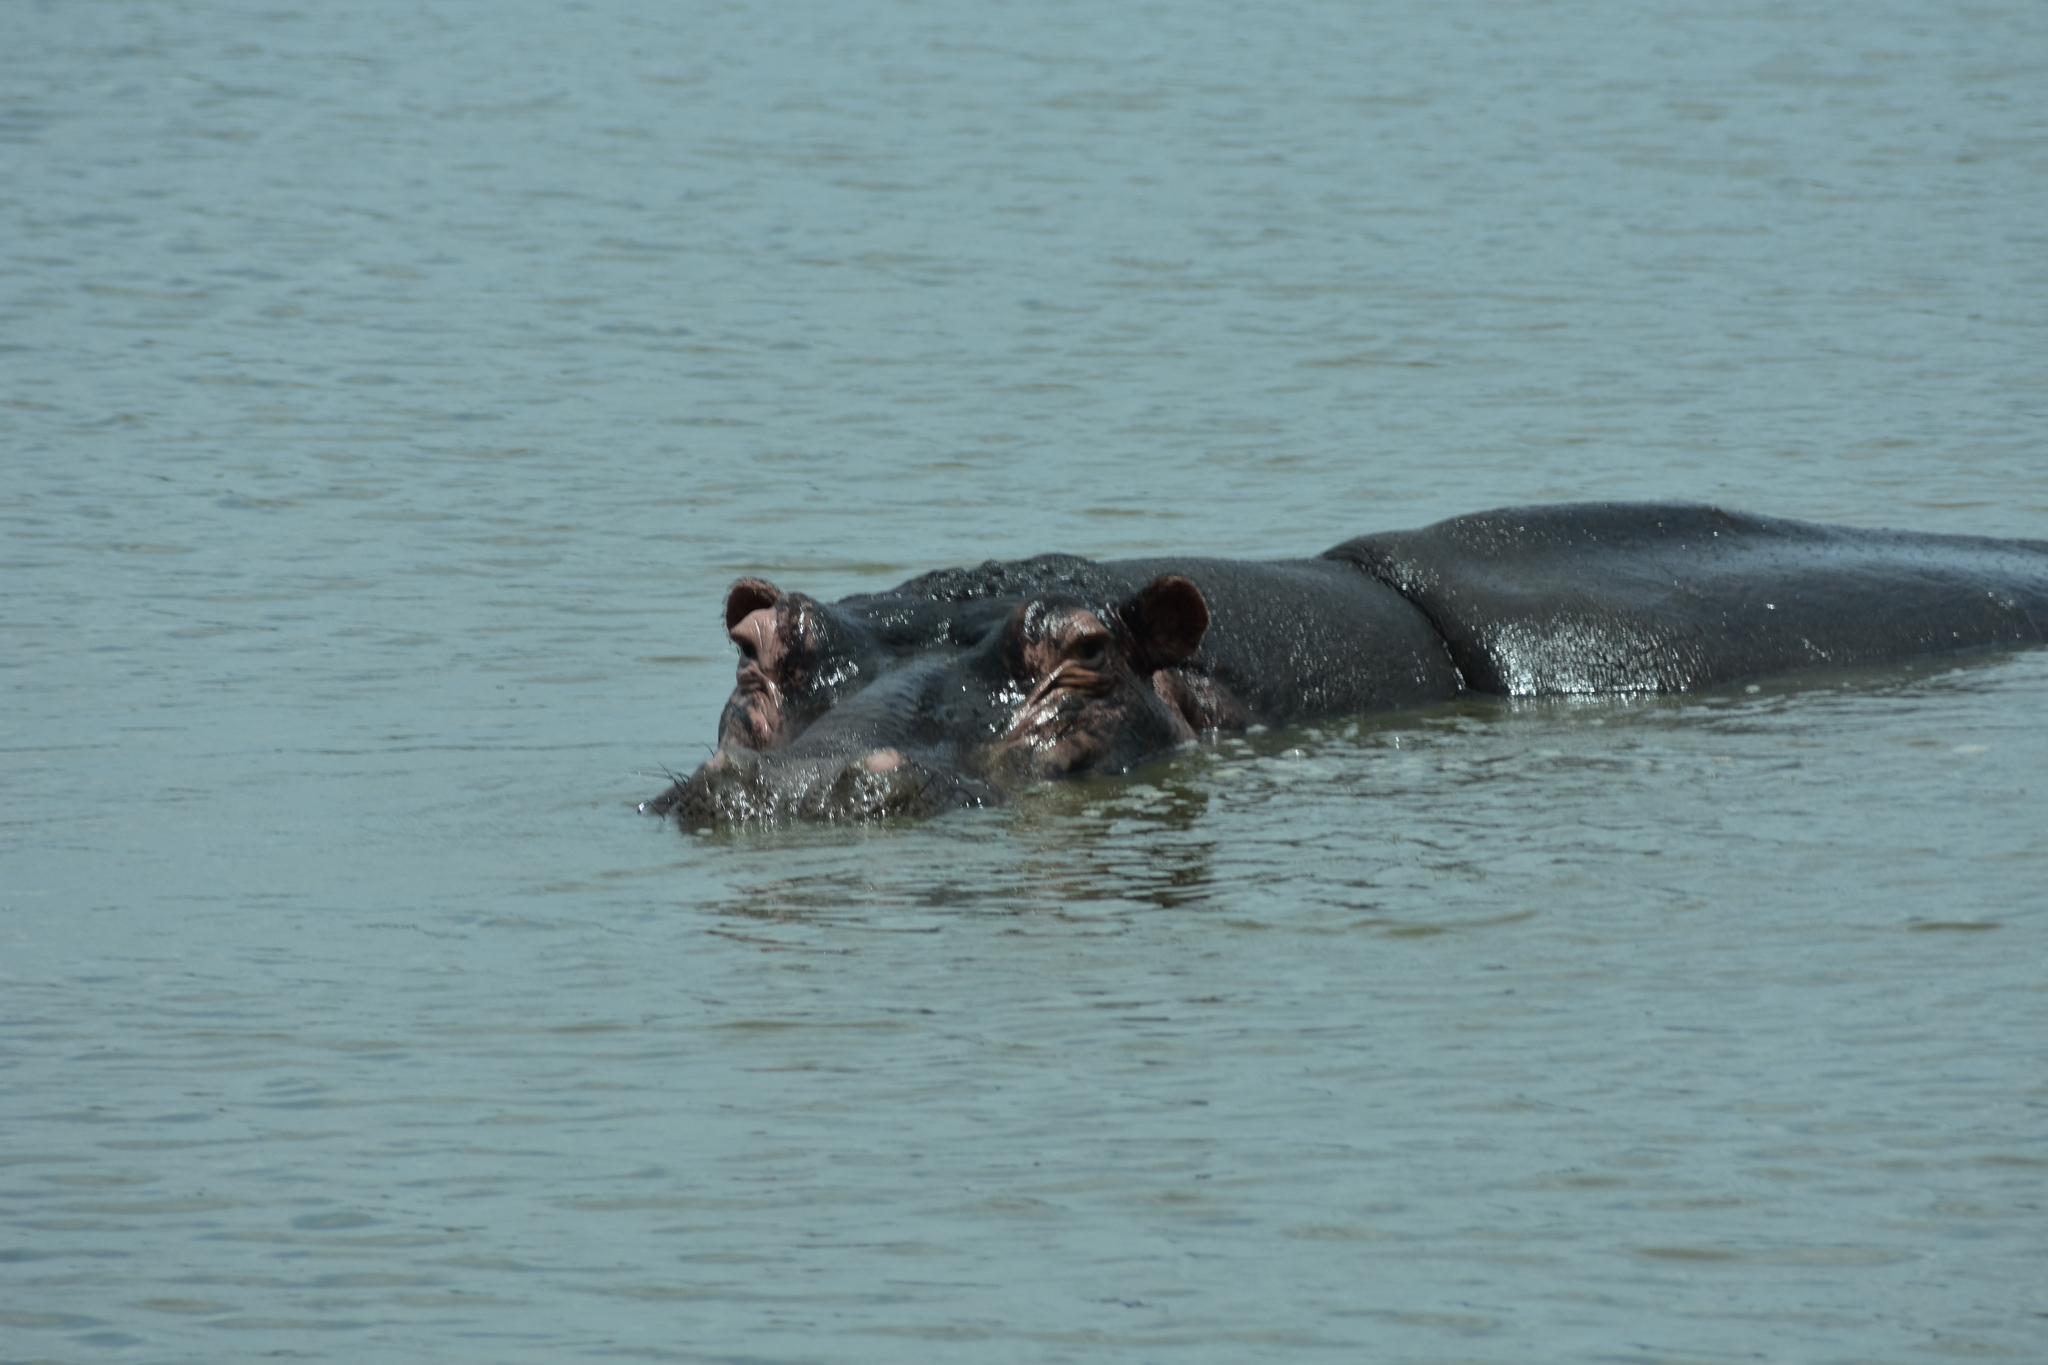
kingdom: Animalia
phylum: Chordata
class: Mammalia
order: Artiodactyla
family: Hippopotamidae
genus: Hippopotamus
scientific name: Hippopotamus amphibius
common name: Common hippopotamus
